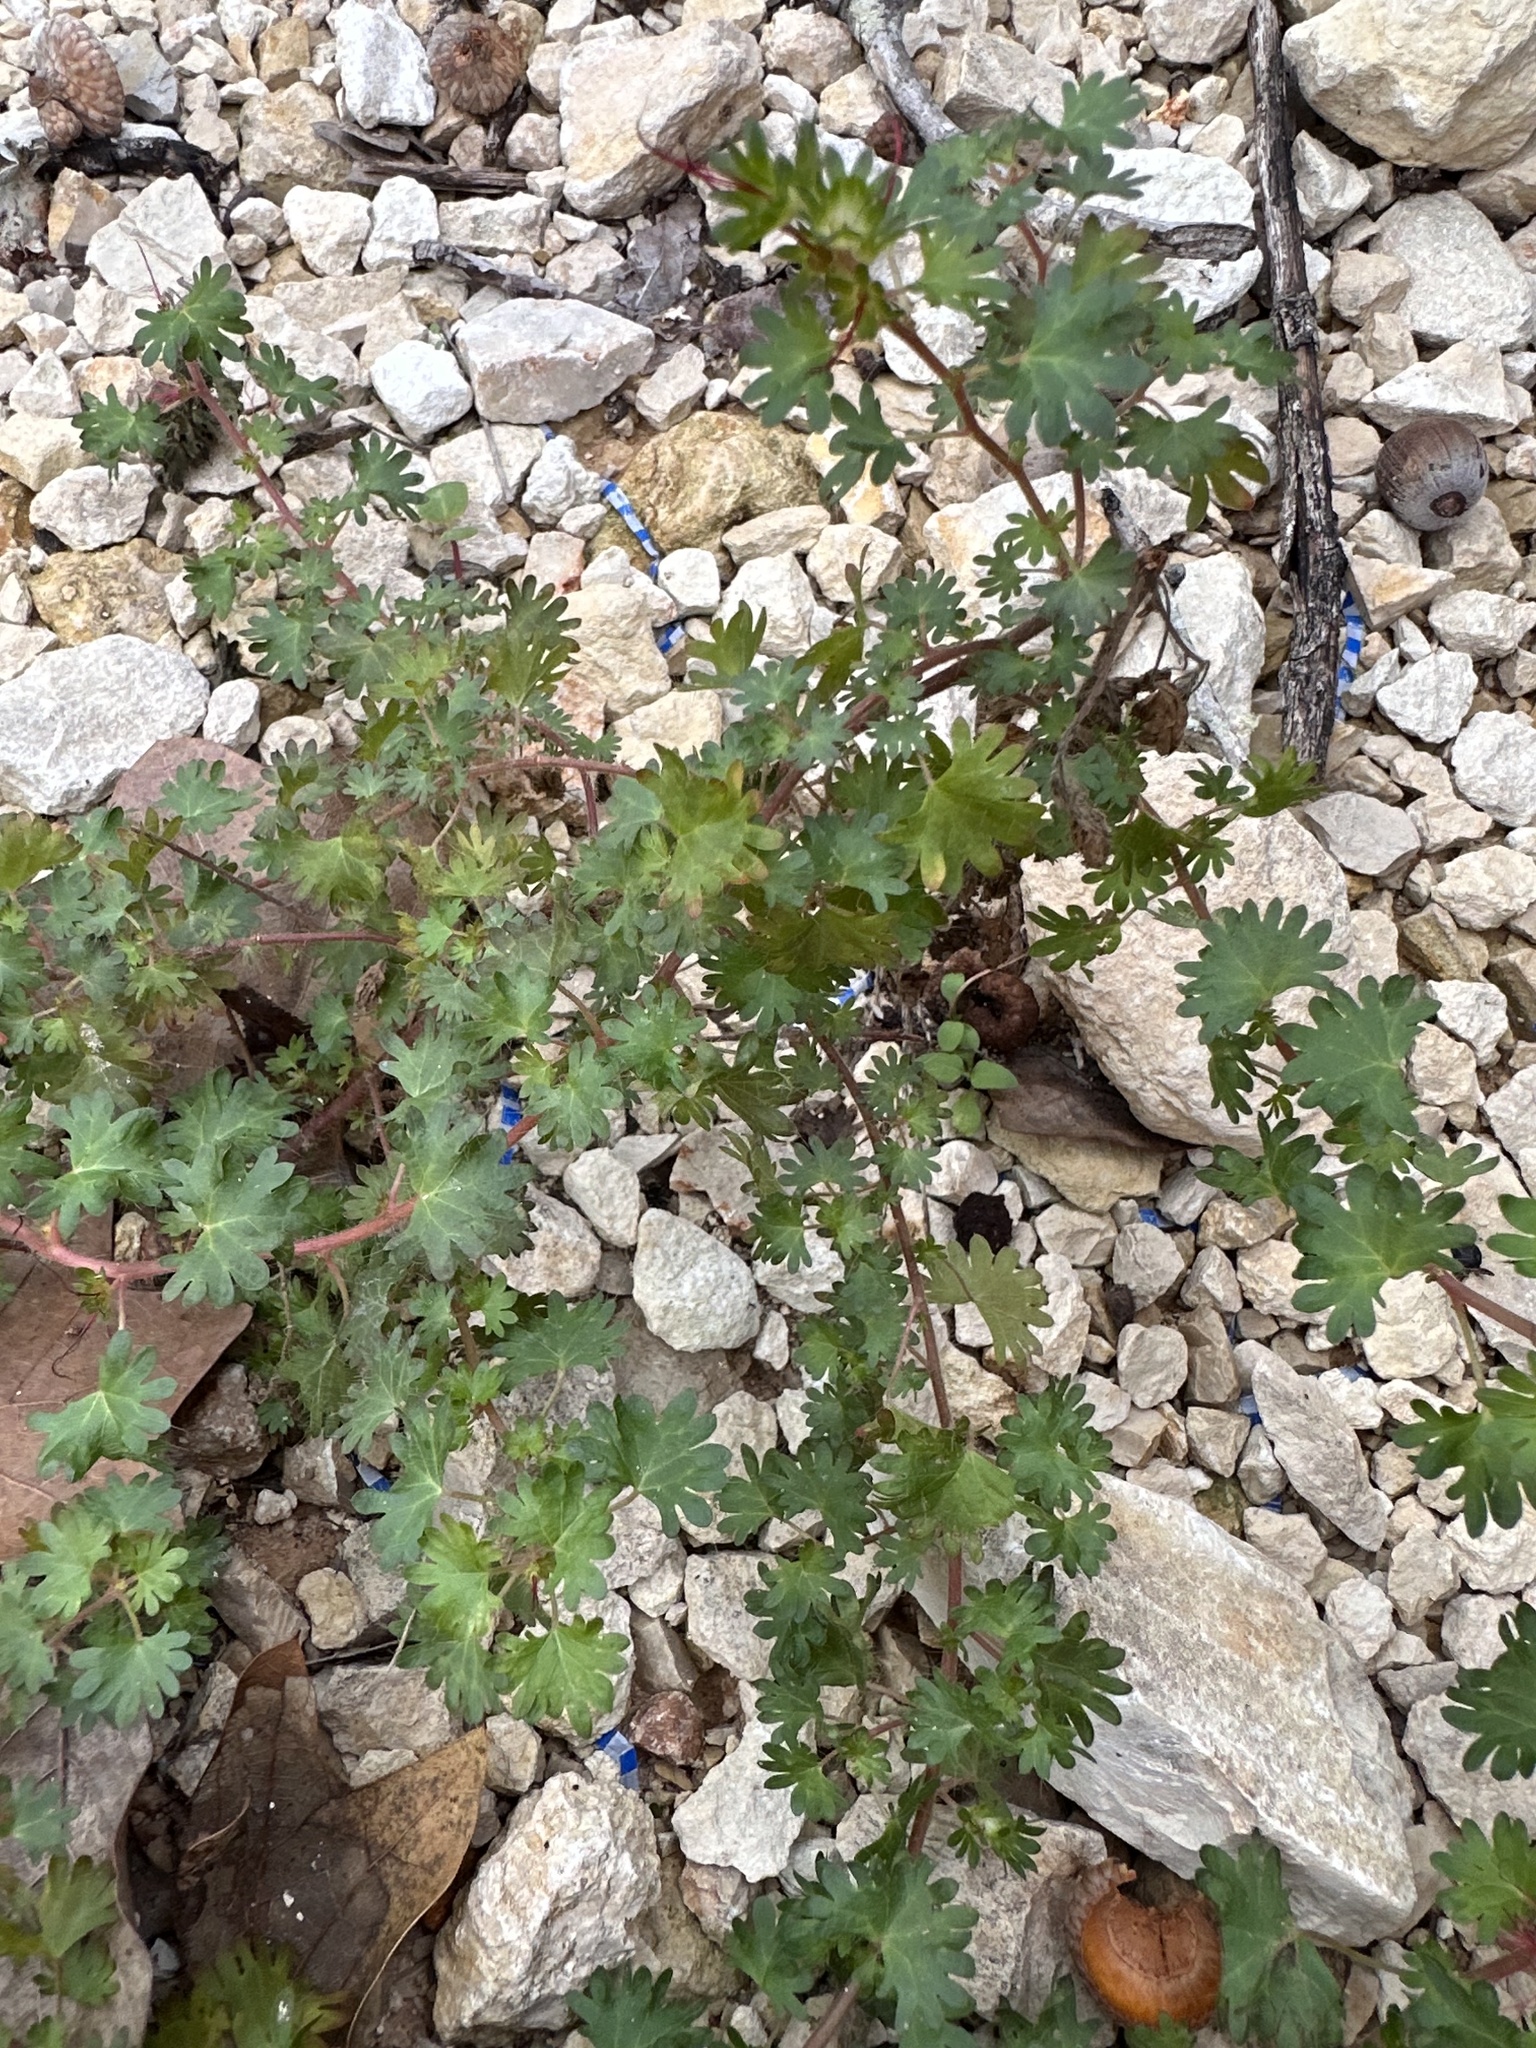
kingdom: Plantae
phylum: Tracheophyta
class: Magnoliopsida
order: Malpighiales
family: Euphorbiaceae
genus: Acalypha
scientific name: Acalypha radians
